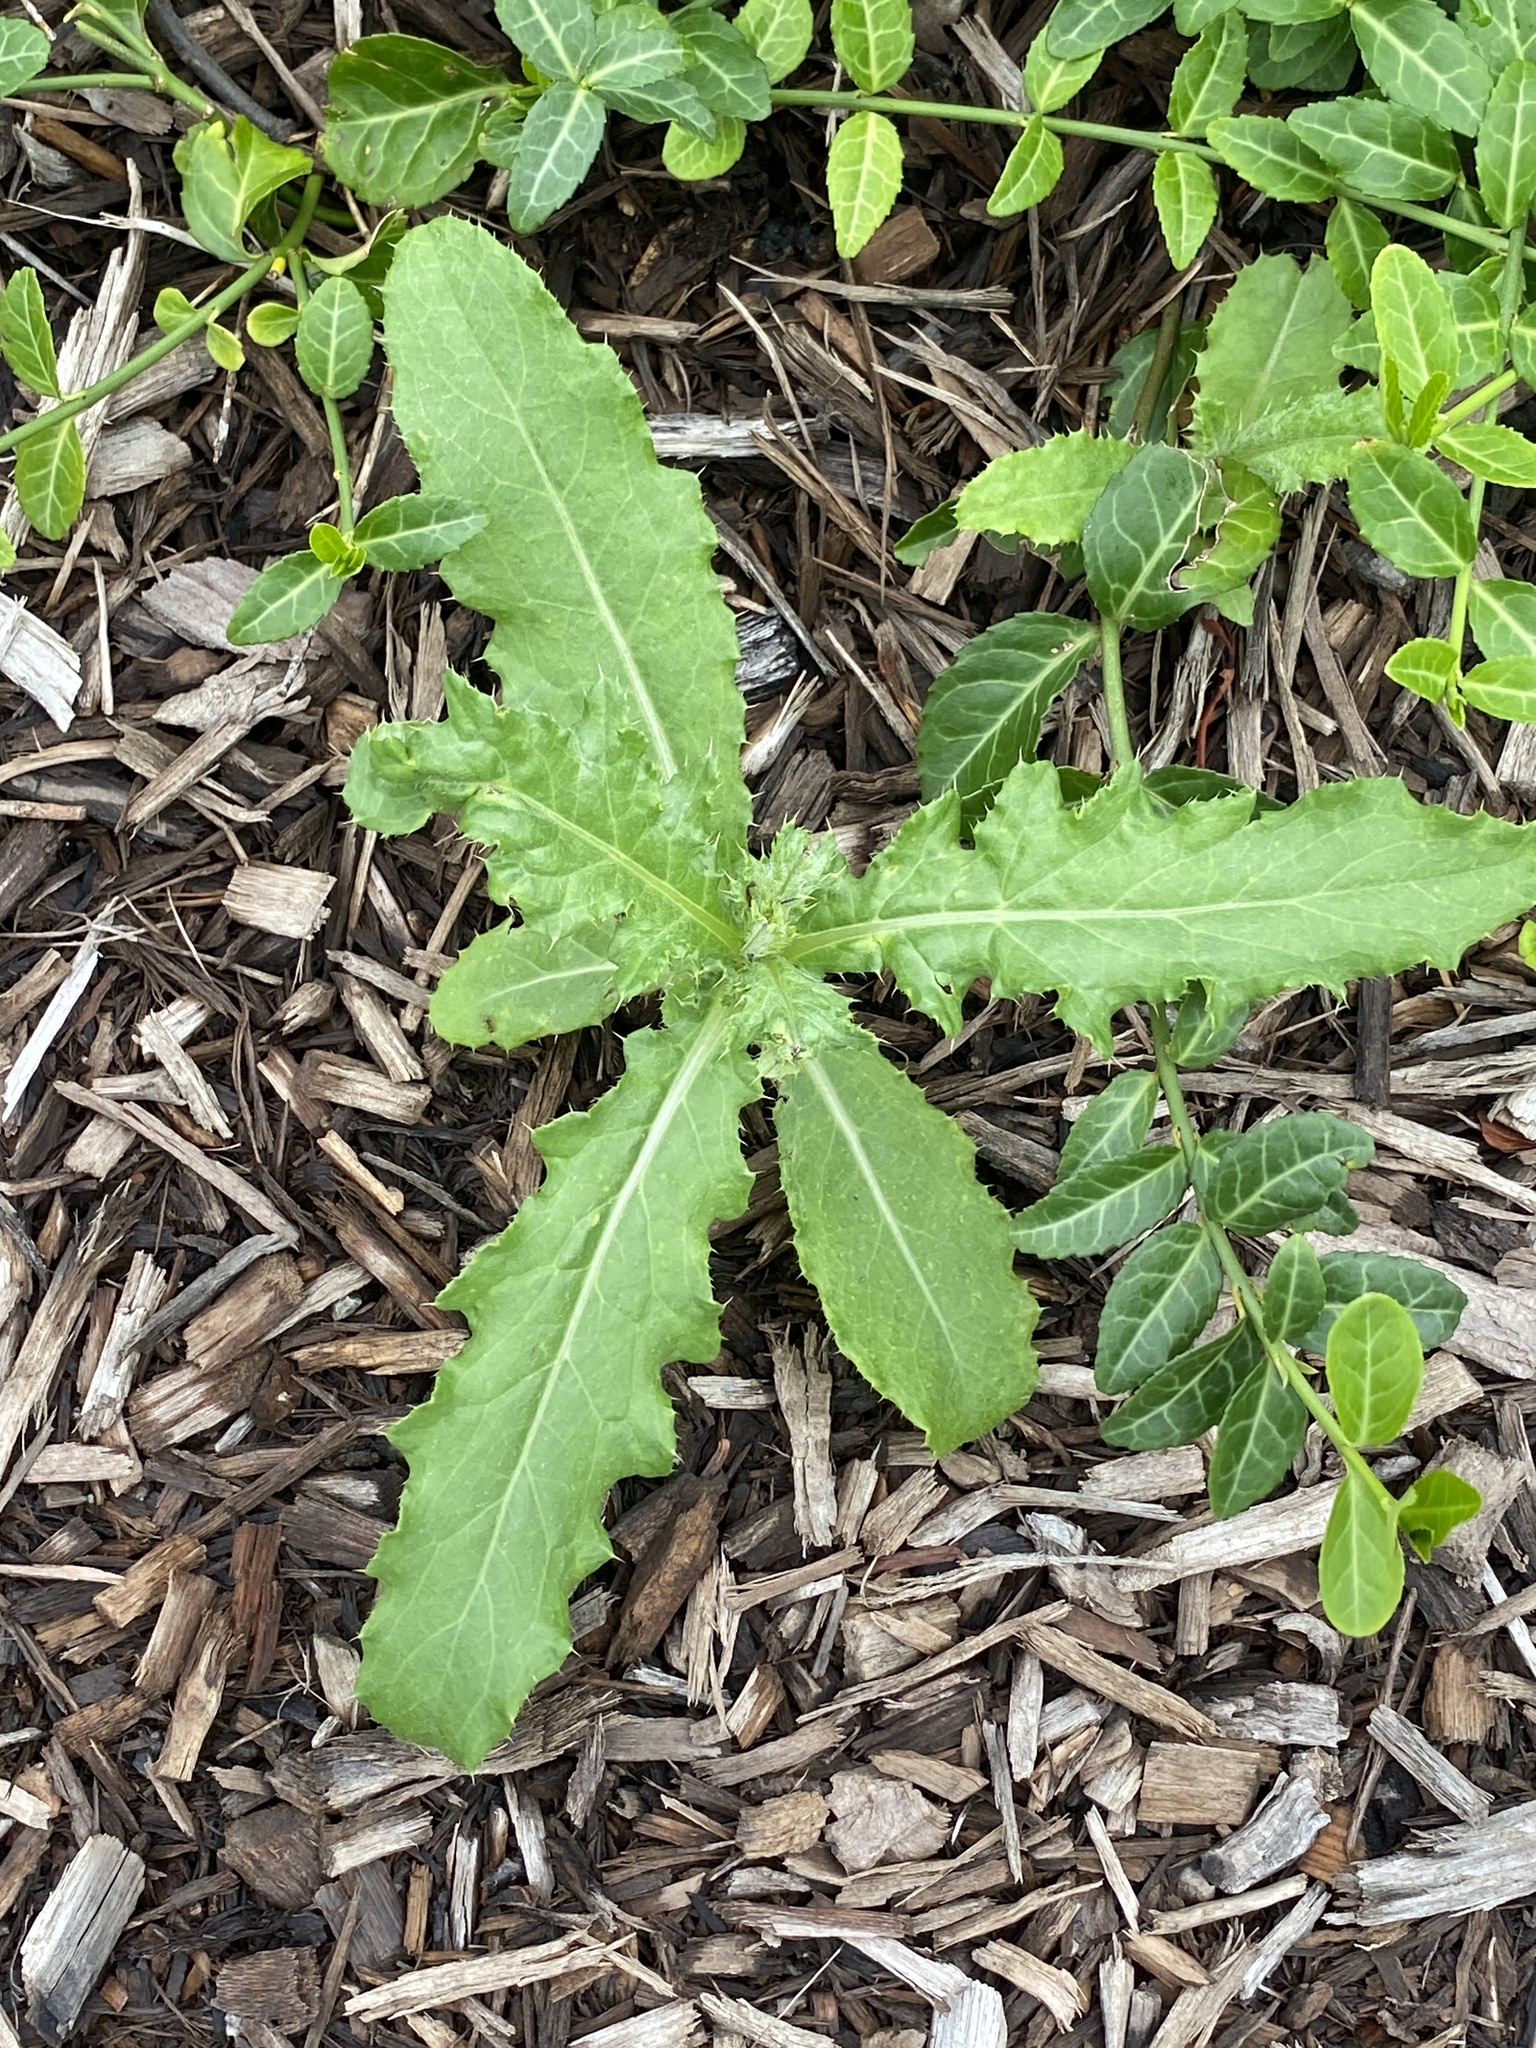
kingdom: Plantae
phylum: Tracheophyta
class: Magnoliopsida
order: Asterales
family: Asteraceae
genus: Cirsium
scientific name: Cirsium arvense
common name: Creeping thistle
